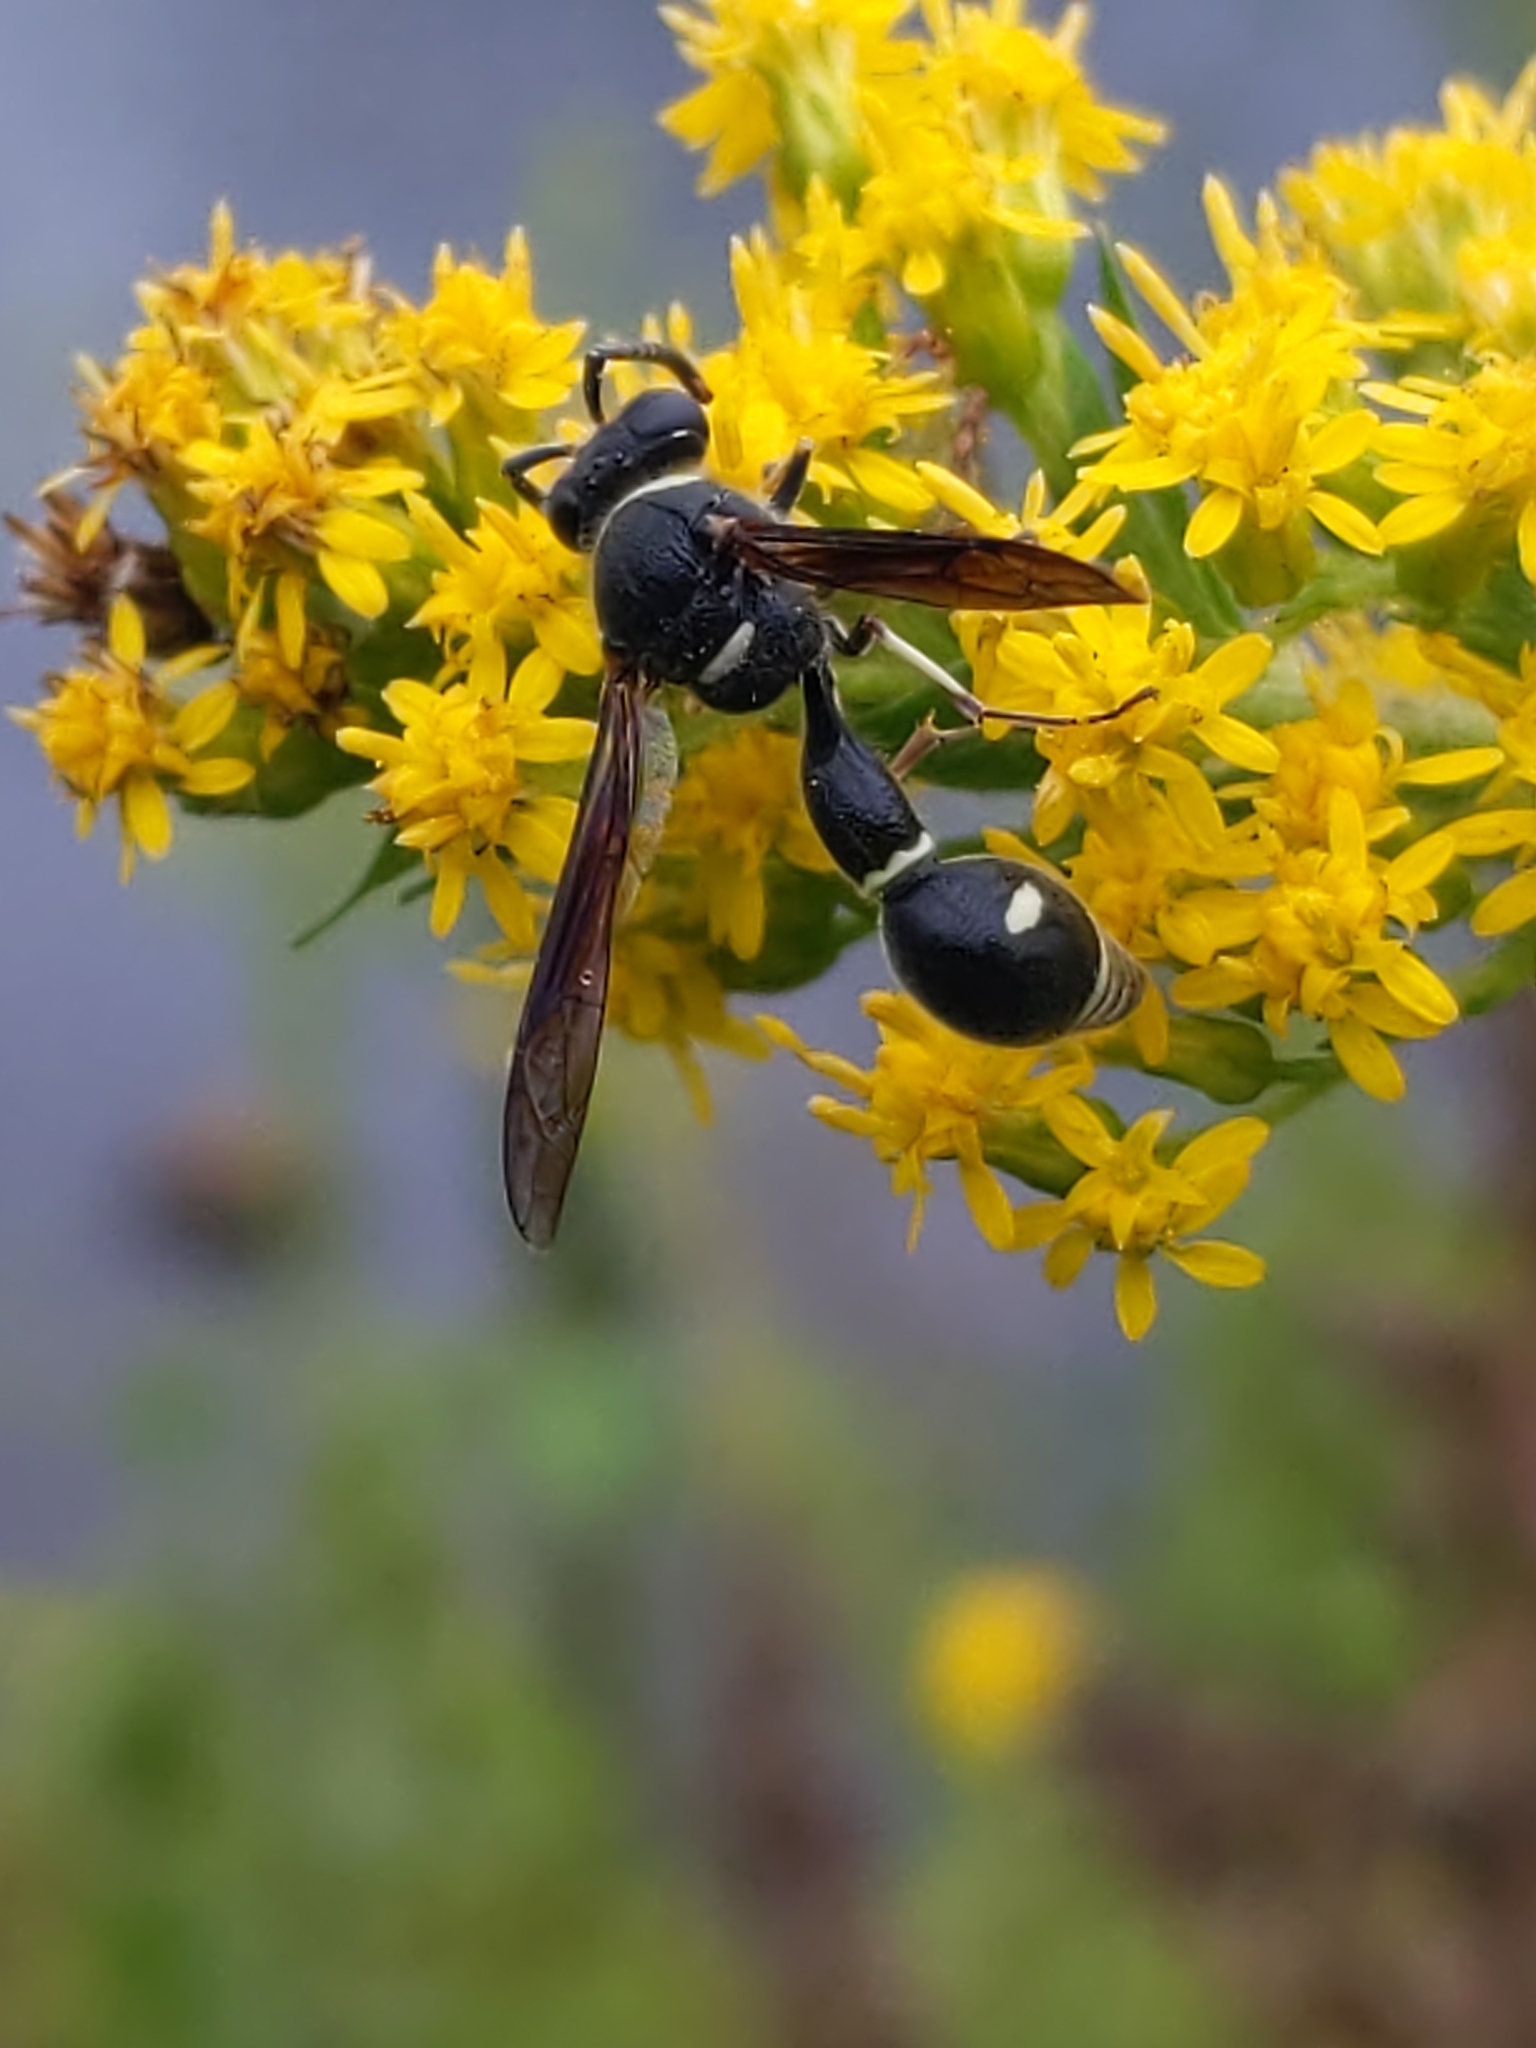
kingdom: Animalia
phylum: Arthropoda
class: Insecta
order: Hymenoptera
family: Vespidae
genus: Eumenes
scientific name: Eumenes fraternus
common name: Fraternal potter wasp
